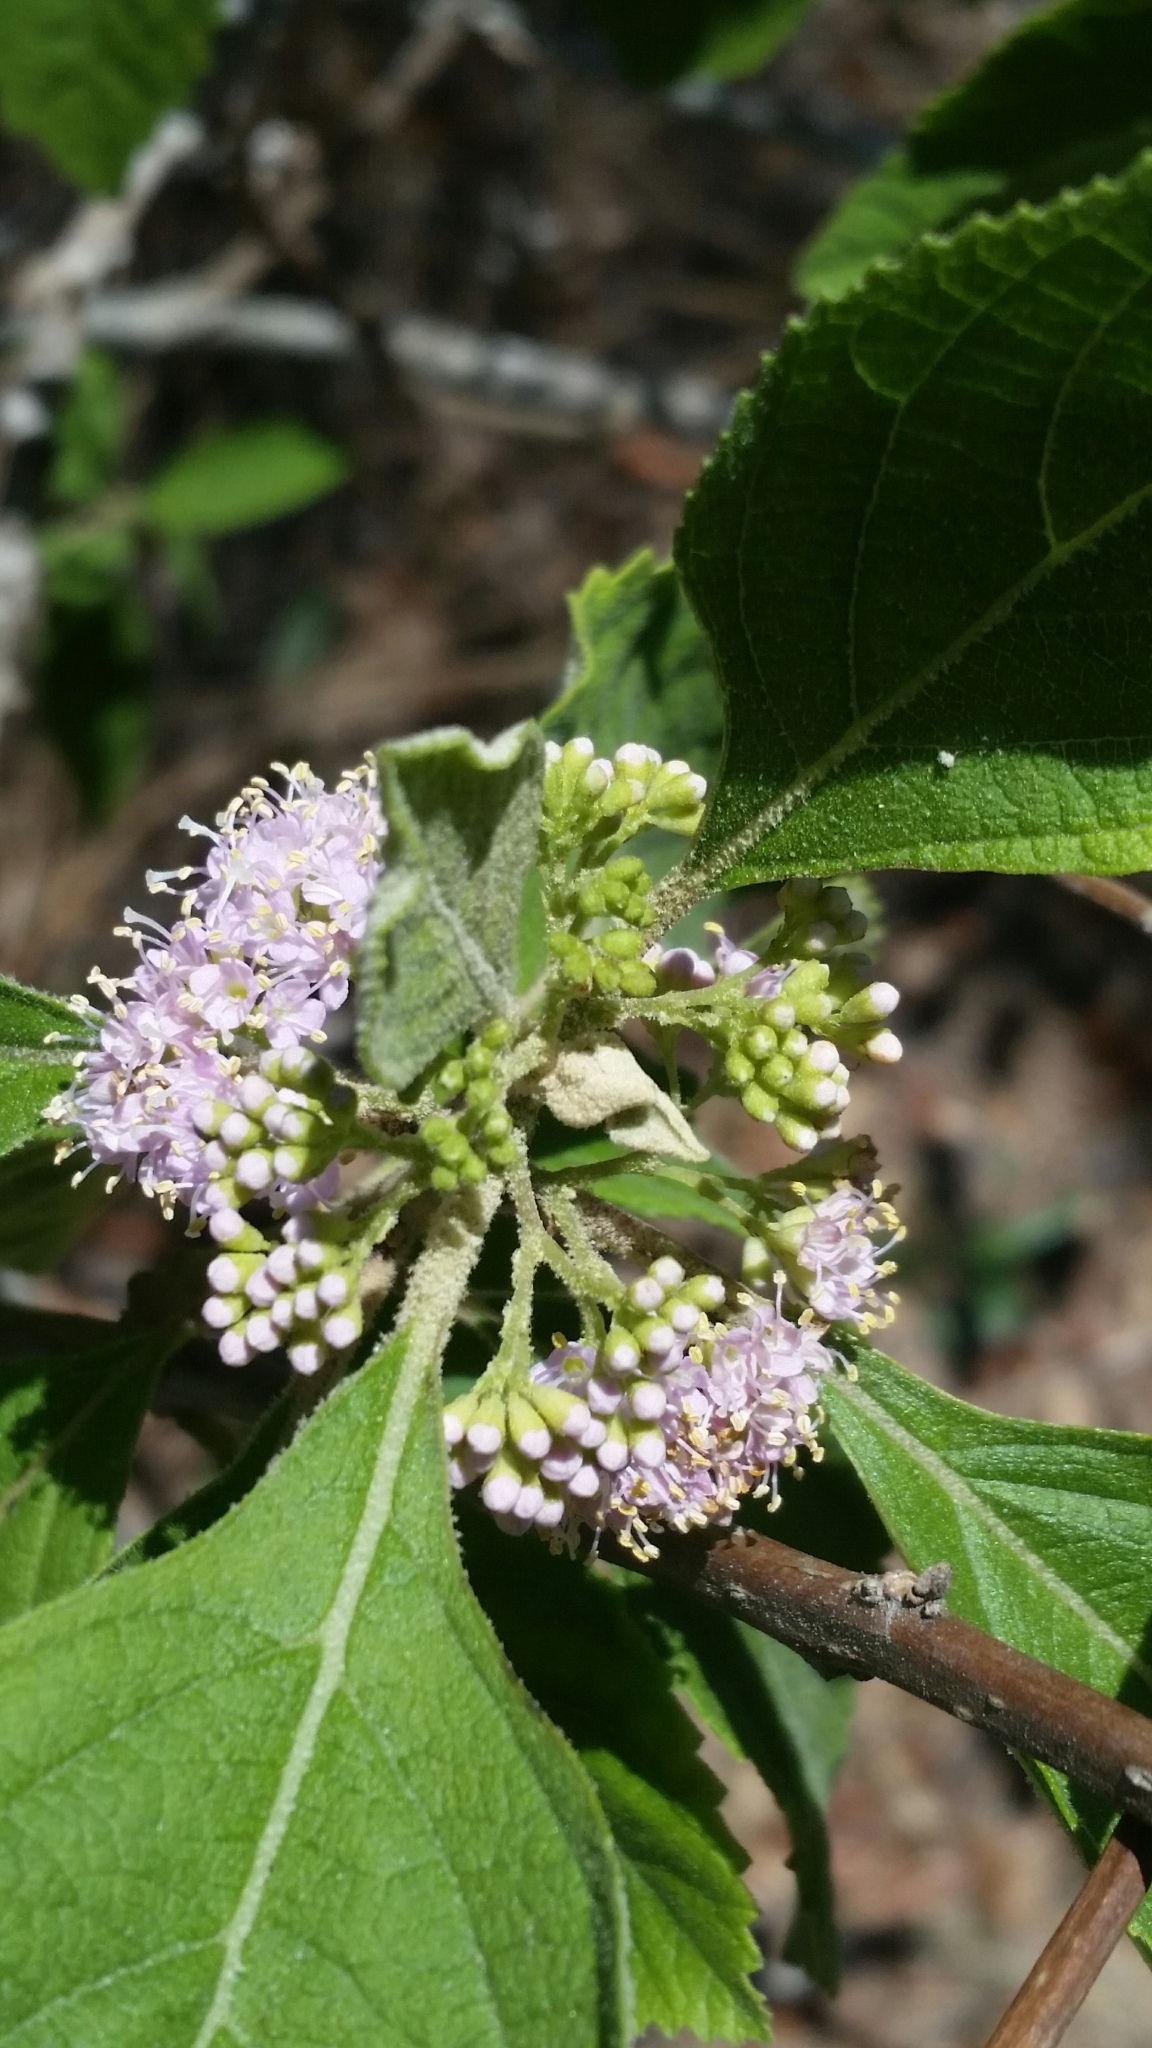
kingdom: Plantae
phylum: Tracheophyta
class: Magnoliopsida
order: Lamiales
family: Lamiaceae
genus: Callicarpa
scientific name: Callicarpa americana
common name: American beautyberry
